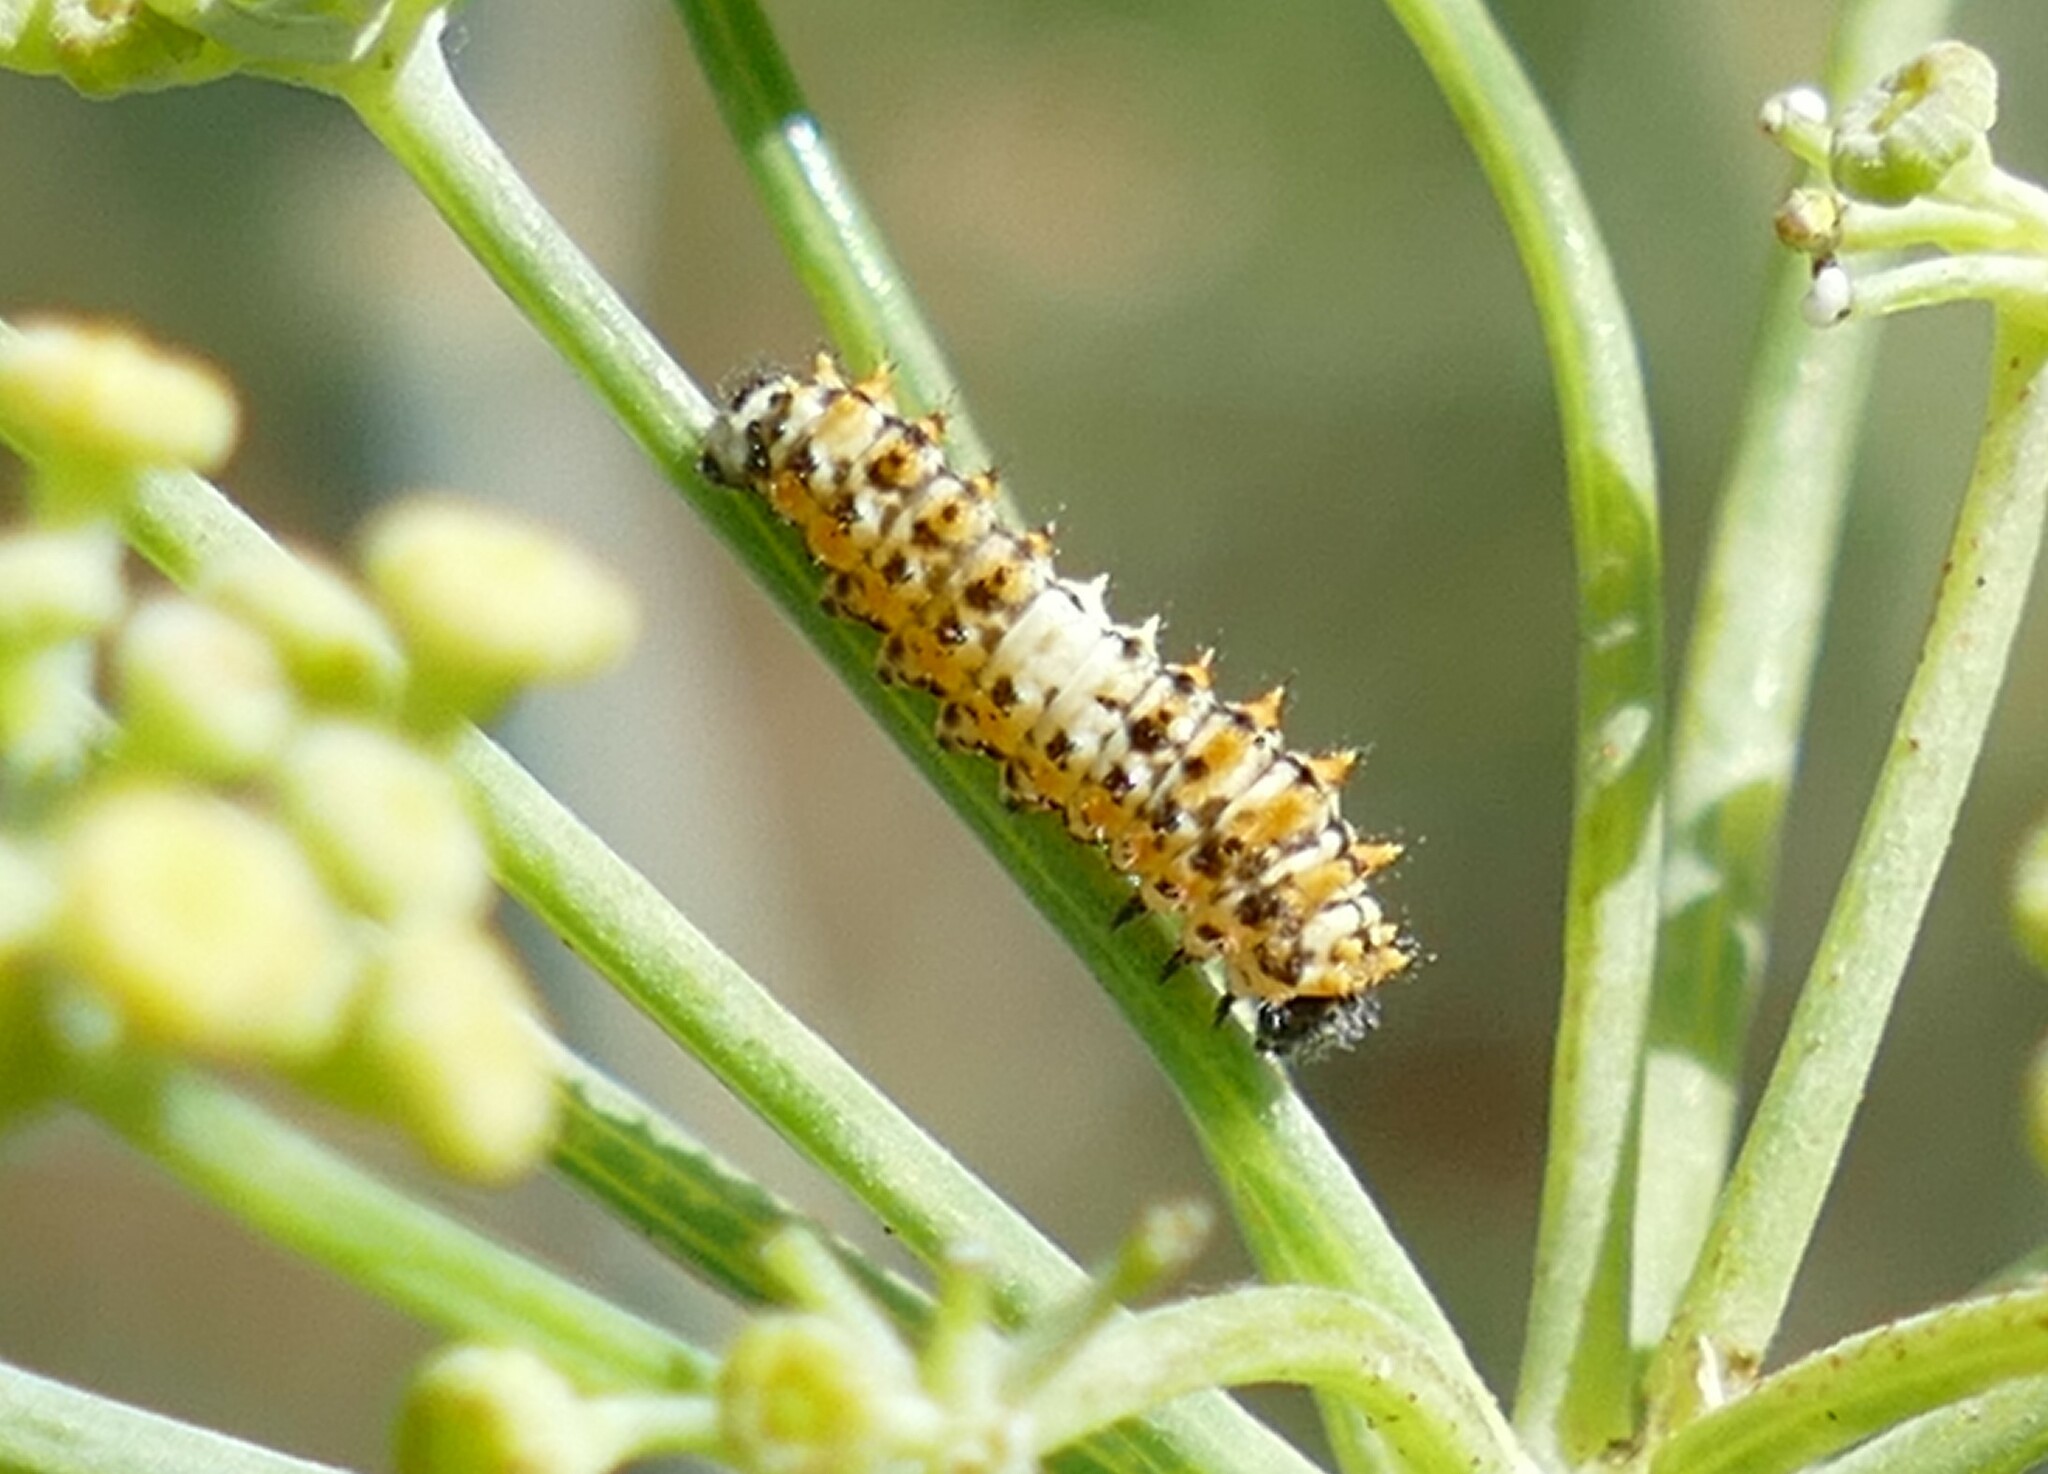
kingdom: Animalia
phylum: Arthropoda
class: Insecta
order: Lepidoptera
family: Papilionidae
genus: Papilio
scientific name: Papilio machaon
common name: Swallowtail
